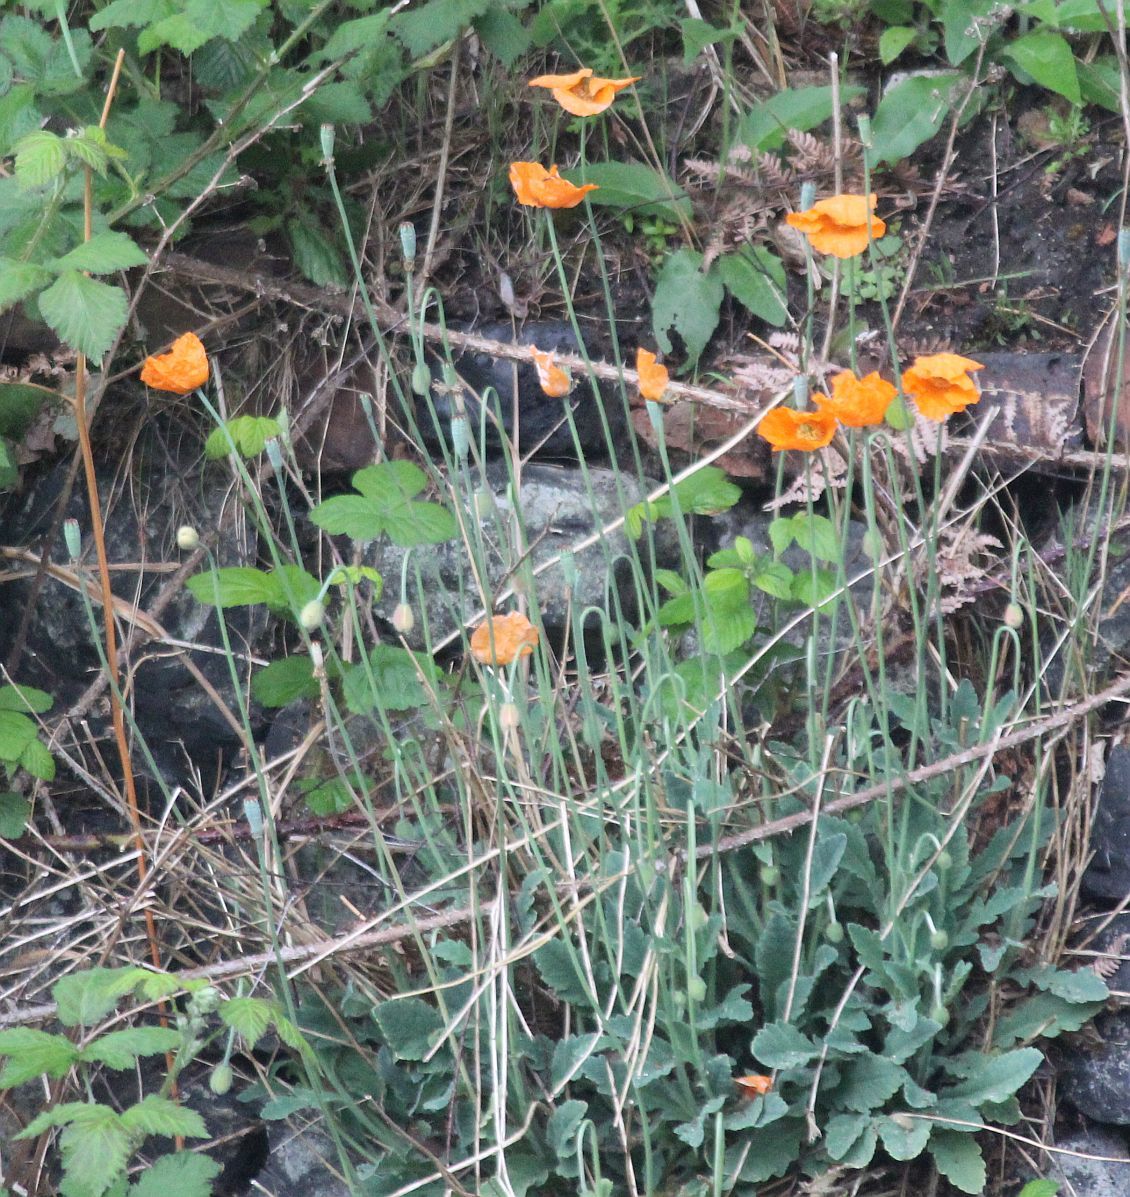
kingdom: Plantae
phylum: Tracheophyta
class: Magnoliopsida
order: Ranunculales
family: Papaveraceae
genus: Papaver
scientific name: Papaver atlanticum
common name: Atlas poppy
